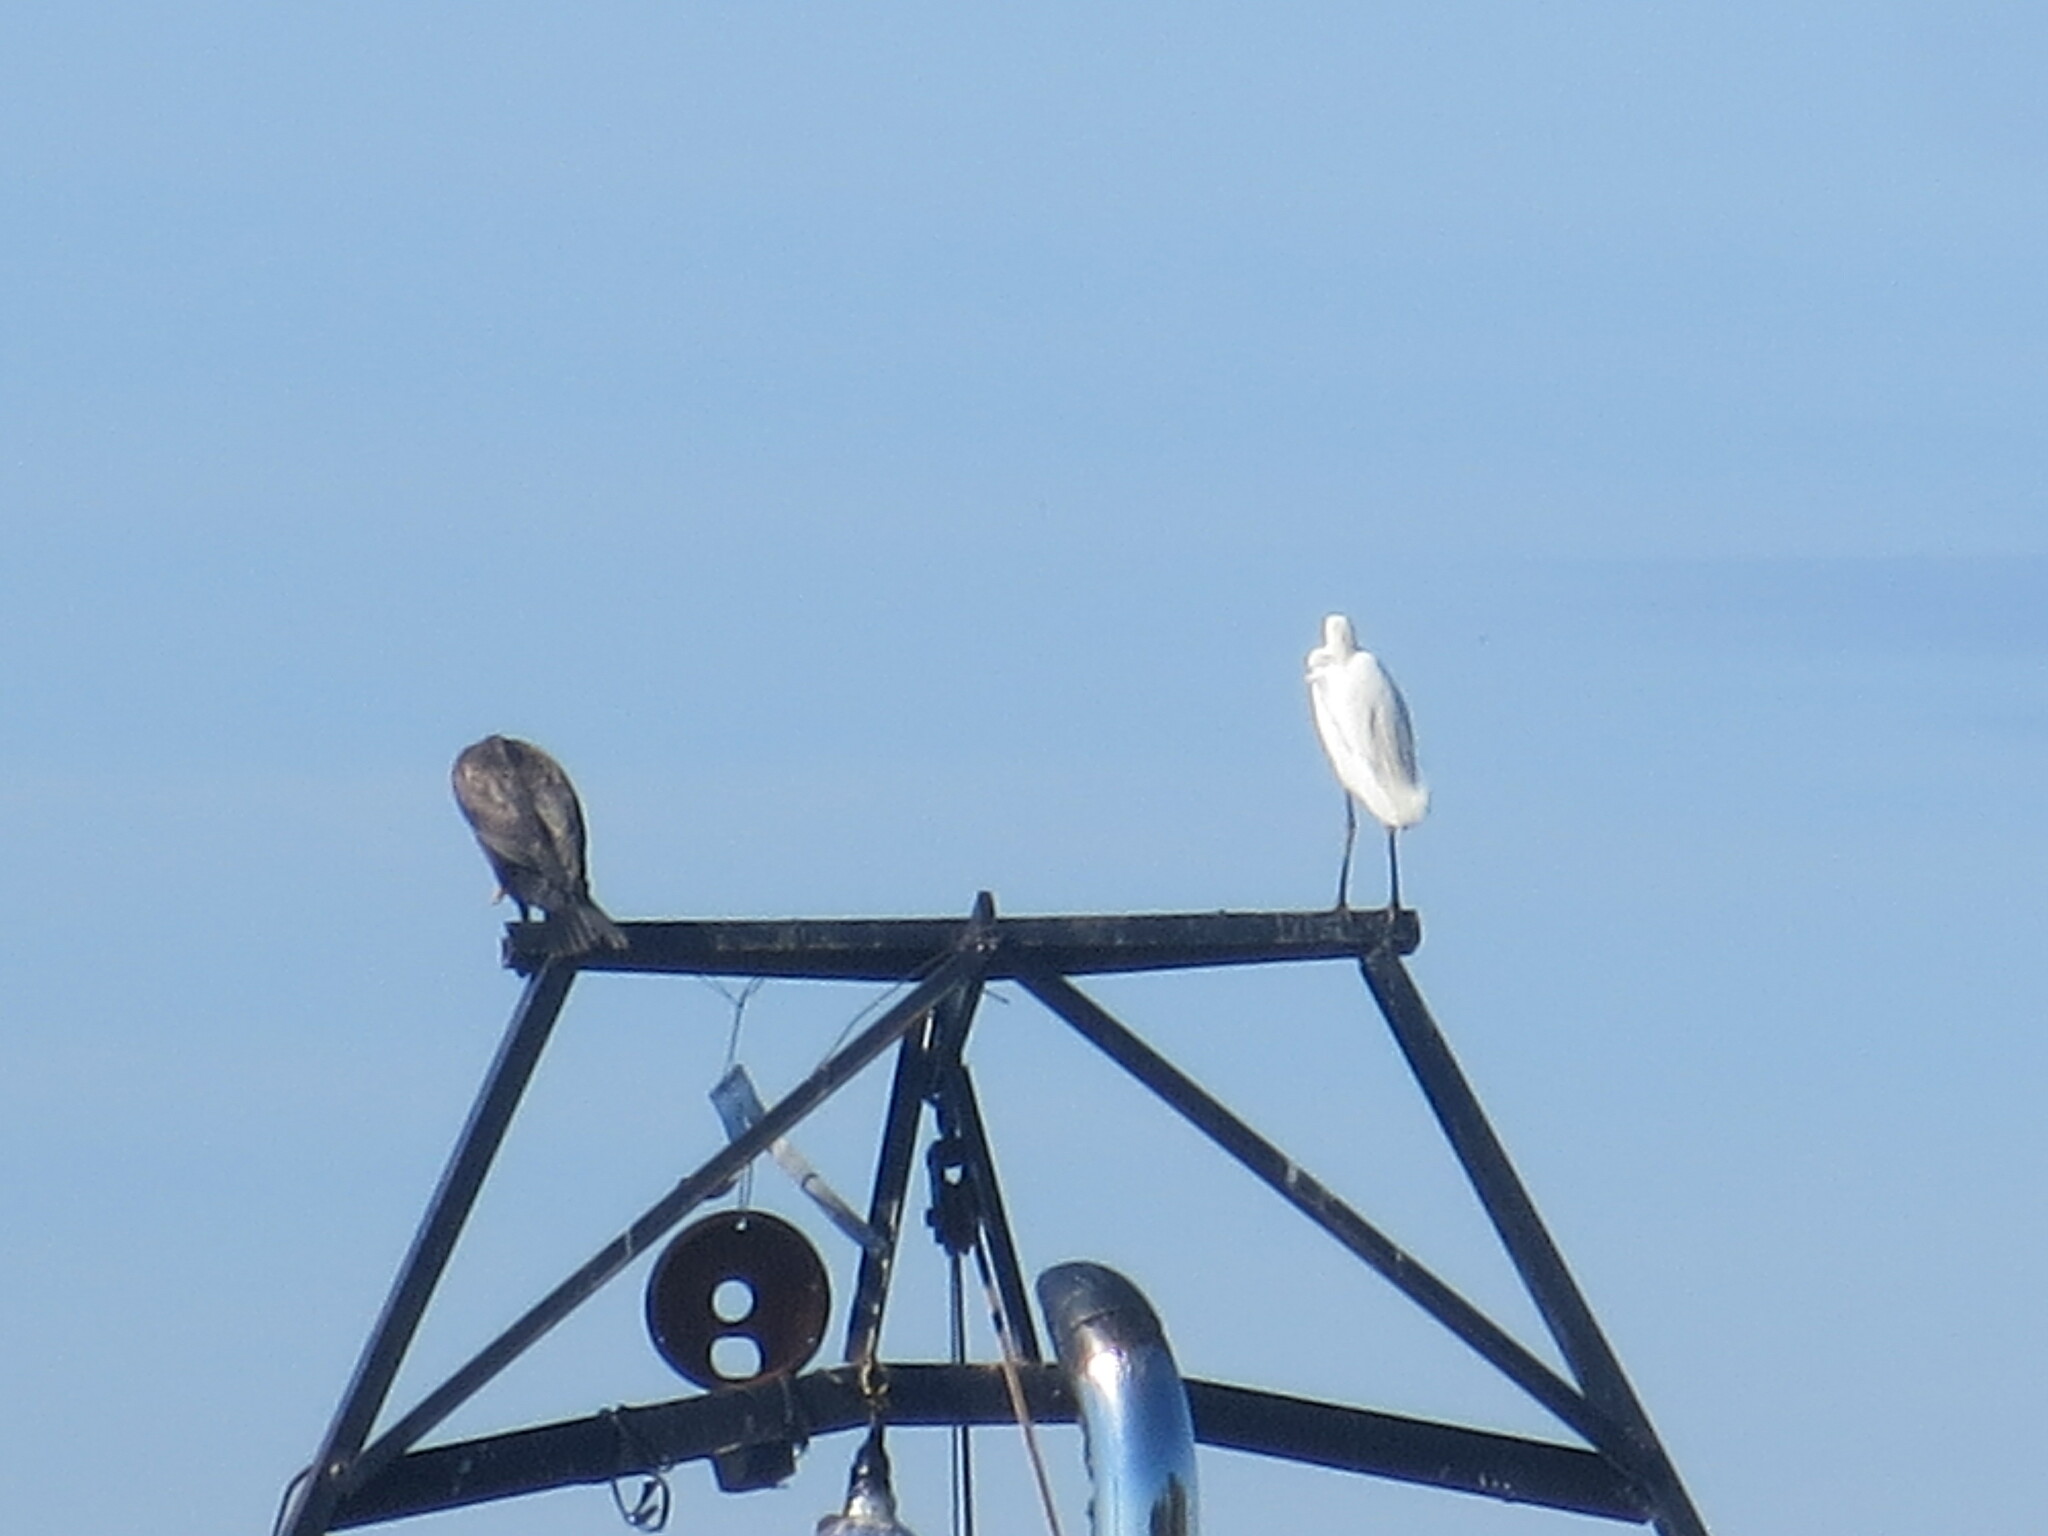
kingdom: Animalia
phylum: Chordata
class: Aves
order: Pelecaniformes
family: Ardeidae
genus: Ardea
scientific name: Ardea alba
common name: Great egret
